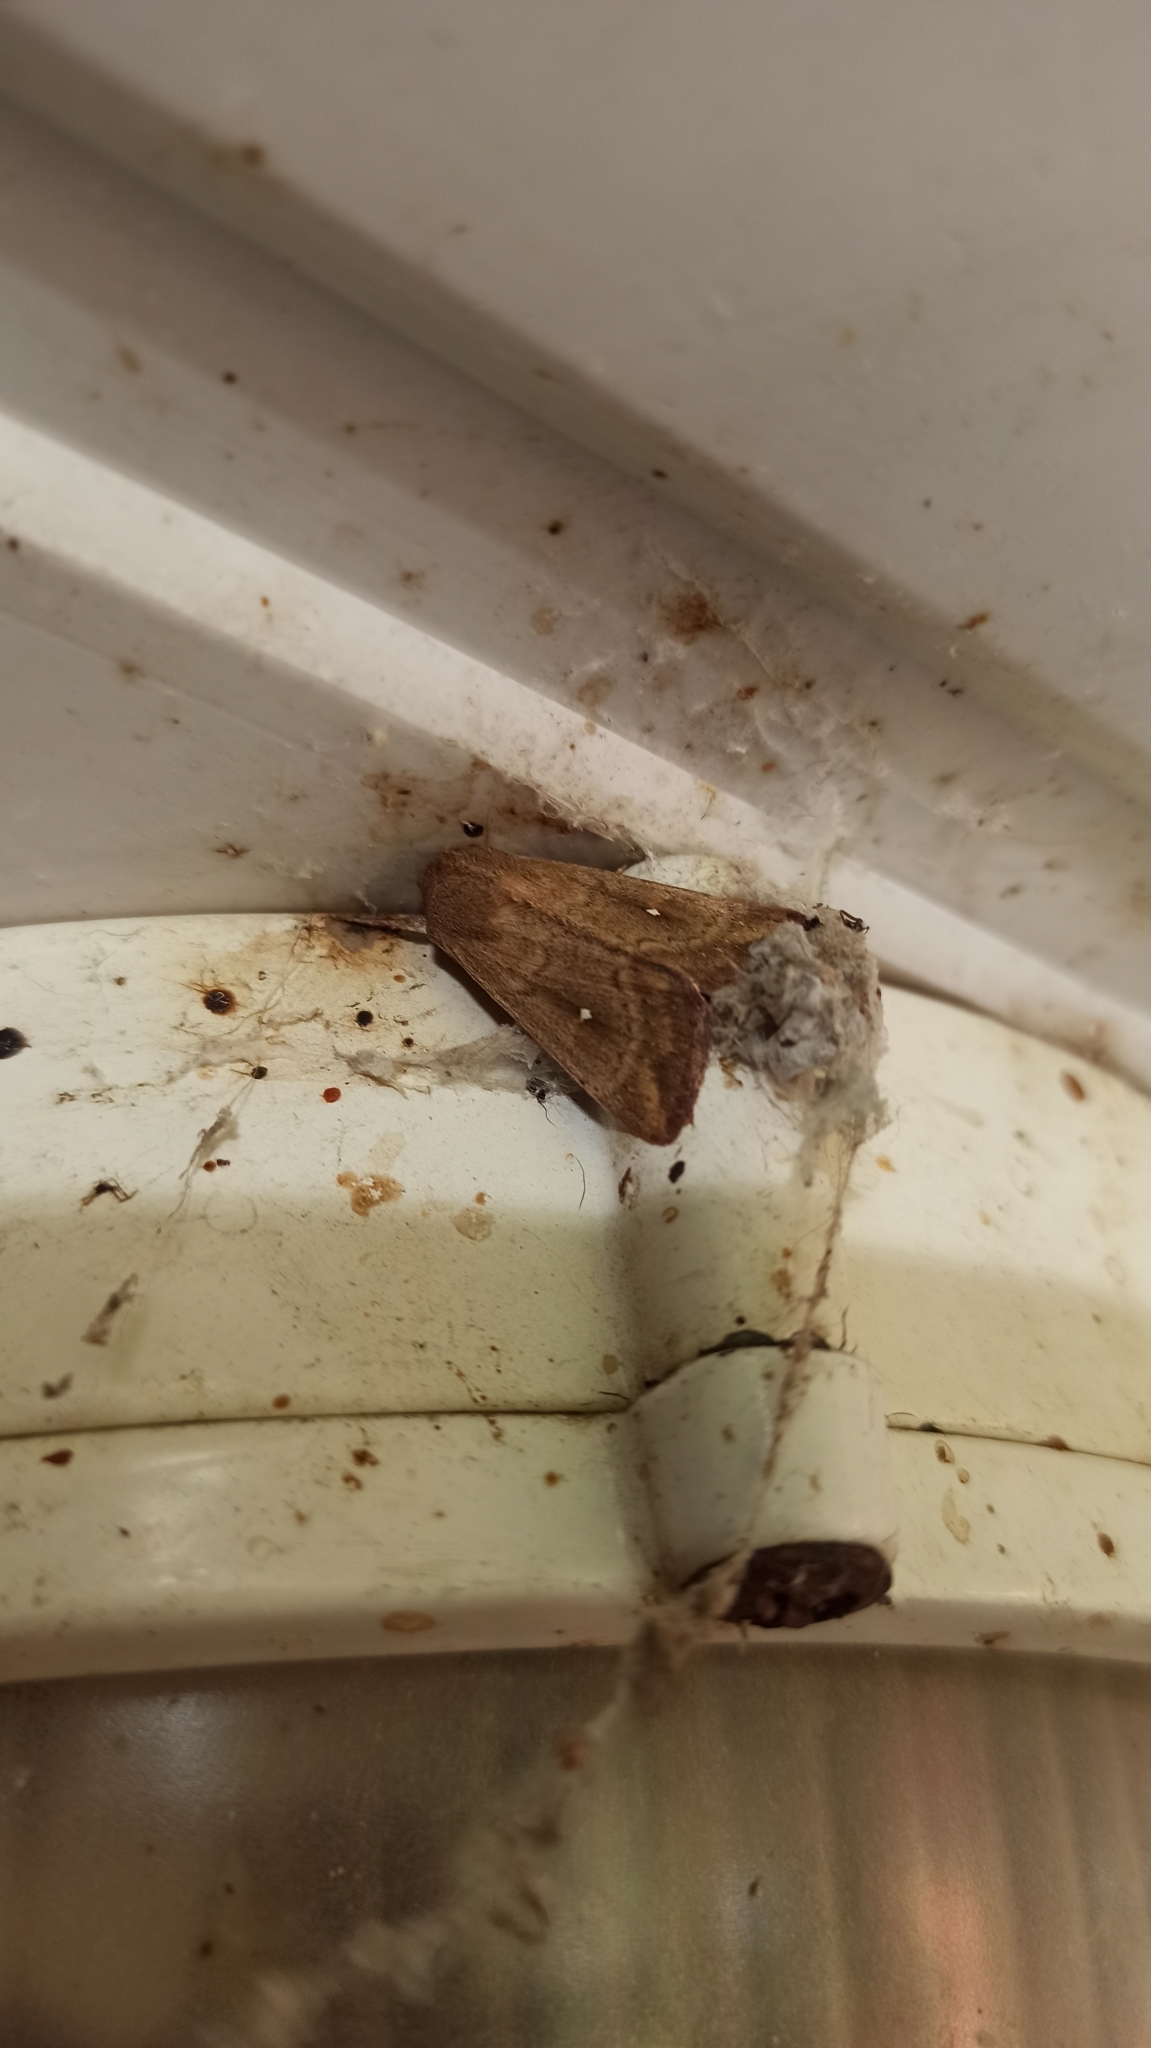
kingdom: Animalia
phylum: Arthropoda
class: Insecta
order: Lepidoptera
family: Noctuidae
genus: Mythimna
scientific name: Mythimna albipuncta
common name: White-point
